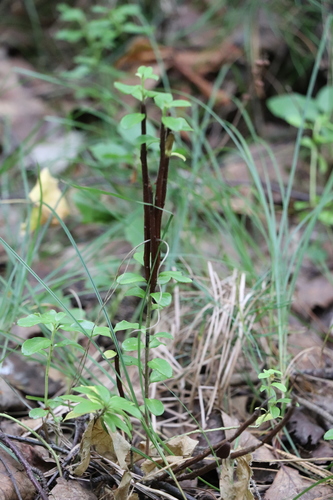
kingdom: Fungi
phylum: Basidiomycota
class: Pucciniomycetes
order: Pucciniales
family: Pucciniastraceae
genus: Calyptospora
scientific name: Calyptospora columnaris
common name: Huckleberry broom rust fungus
